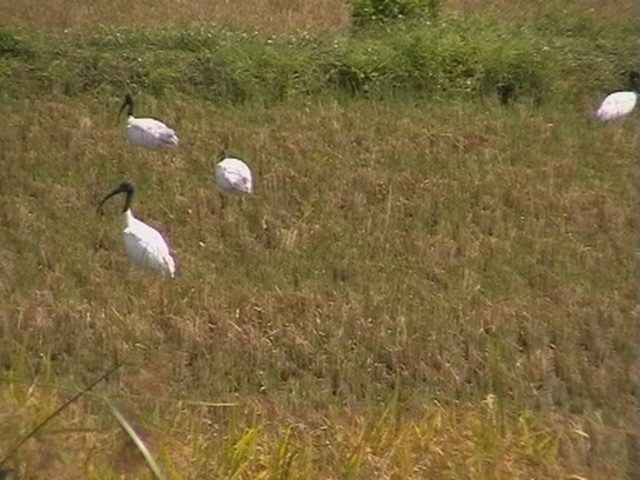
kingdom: Animalia
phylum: Chordata
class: Aves
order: Pelecaniformes
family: Threskiornithidae
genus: Threskiornis
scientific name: Threskiornis melanocephalus
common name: Black-headed ibis
